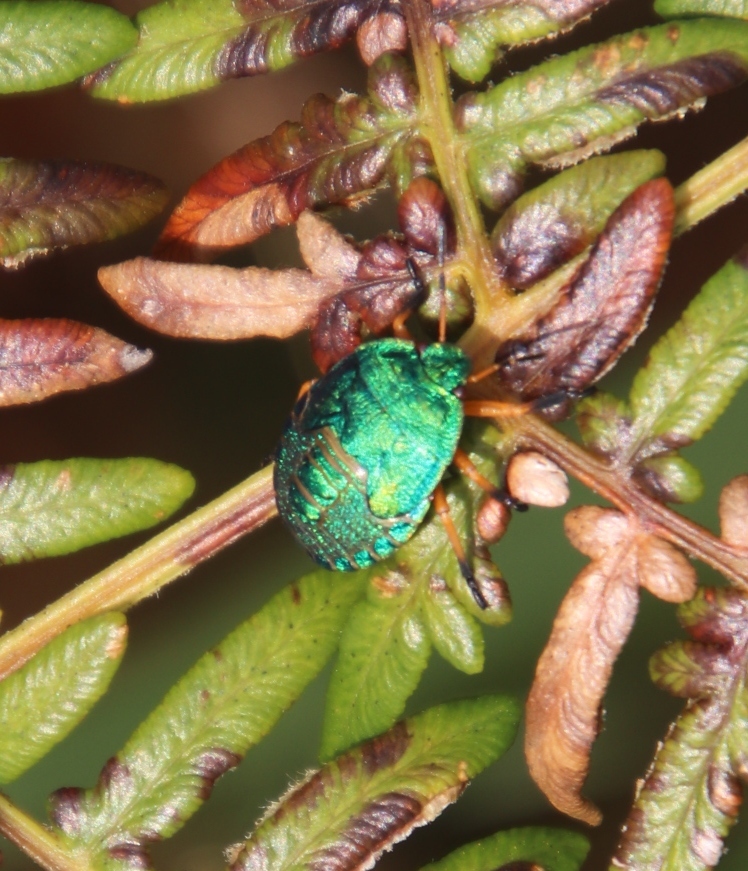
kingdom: Animalia
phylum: Arthropoda
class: Insecta
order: Hemiptera
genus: Erachtheus
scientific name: Erachtheus
